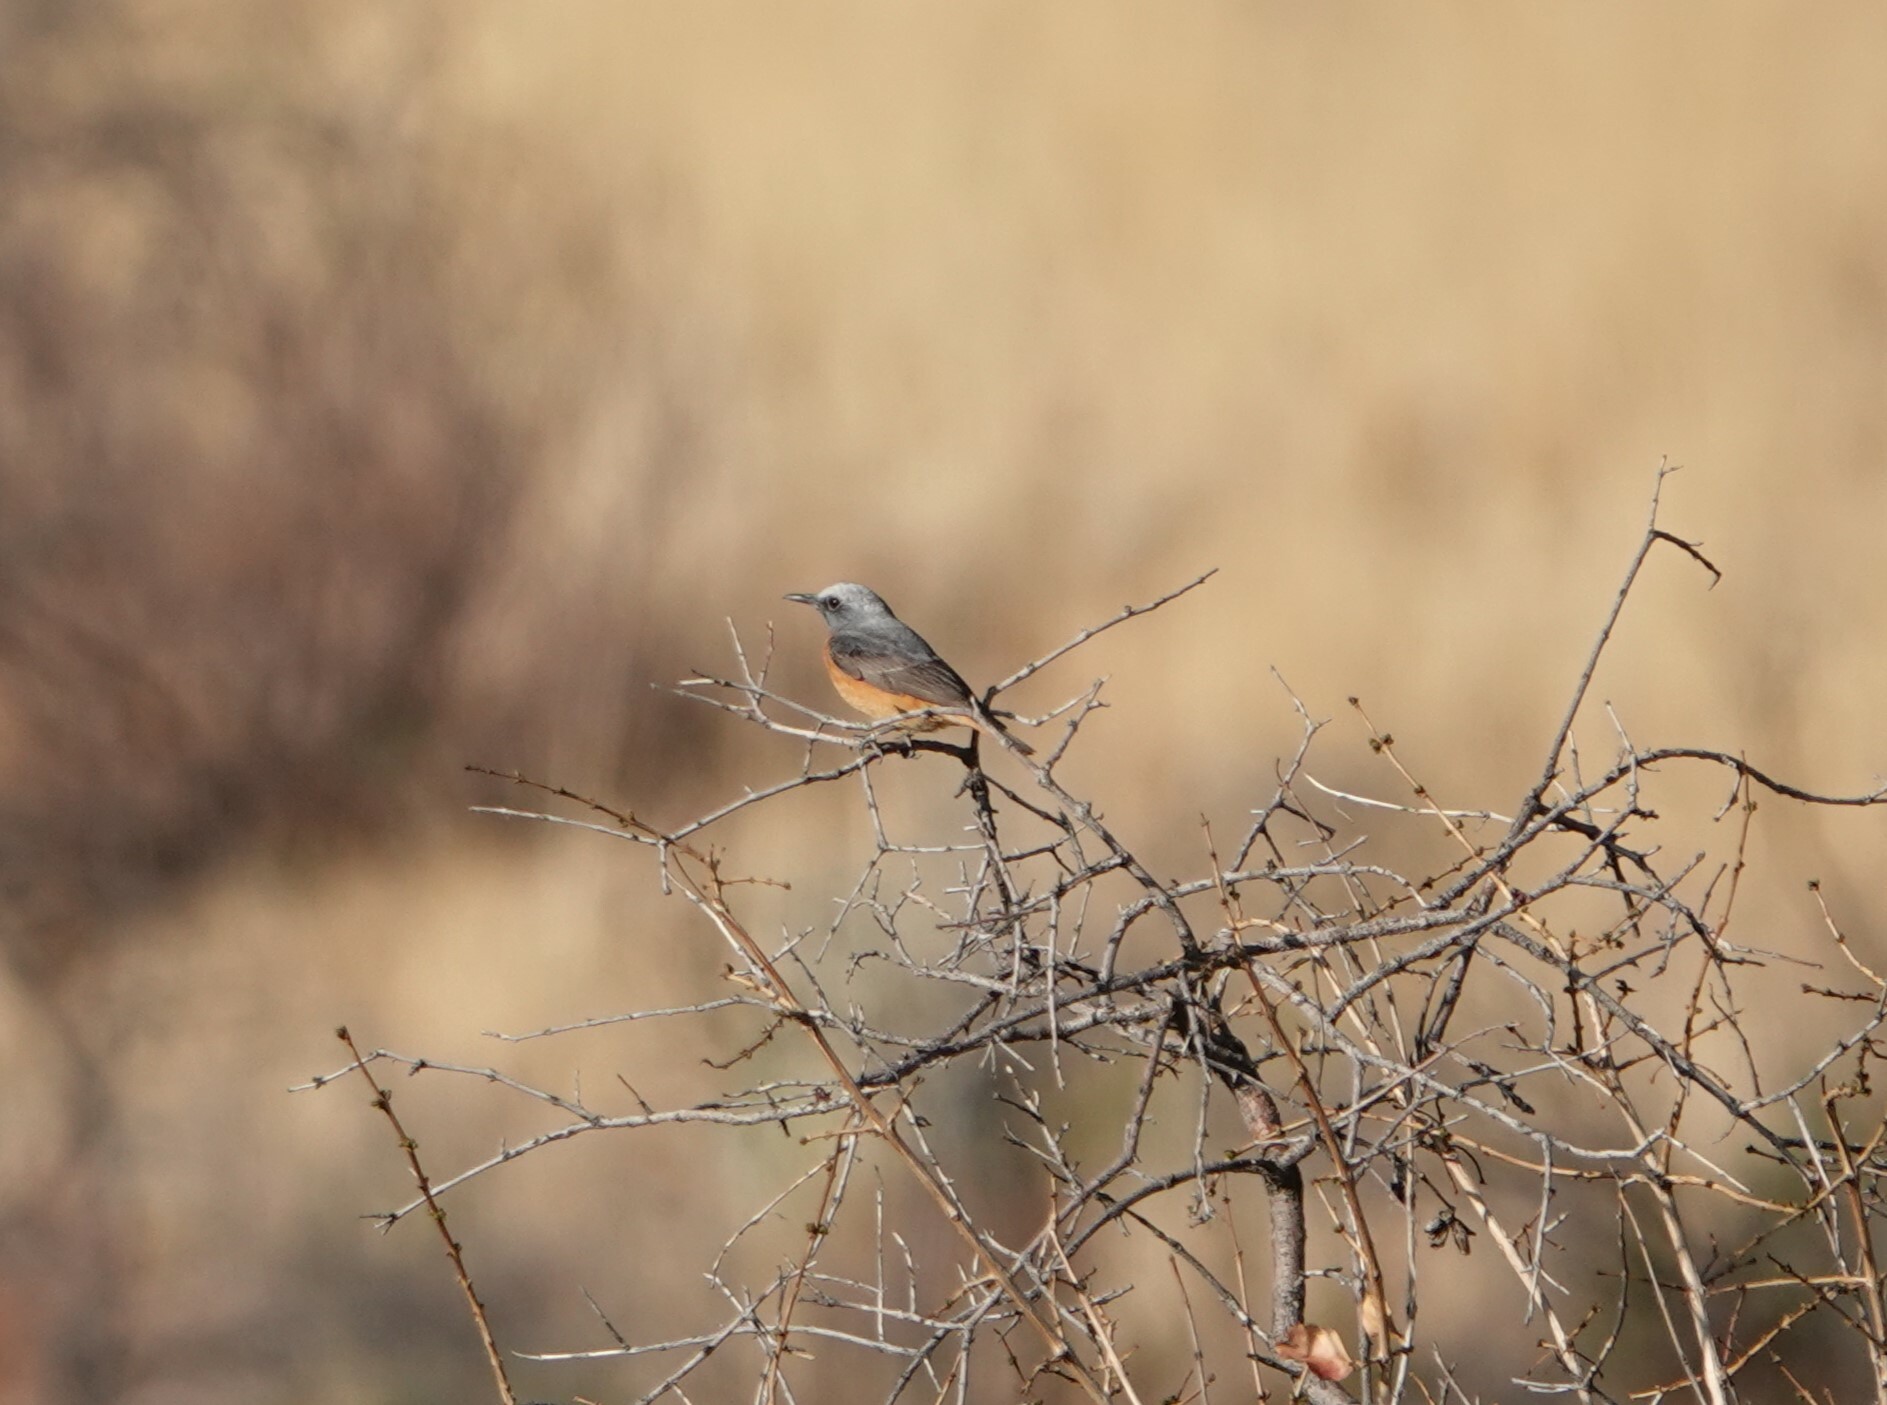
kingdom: Animalia
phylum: Chordata
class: Aves
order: Passeriformes
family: Muscicapidae
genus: Monticola
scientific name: Monticola brevipes
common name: Short-toed rock thrush
